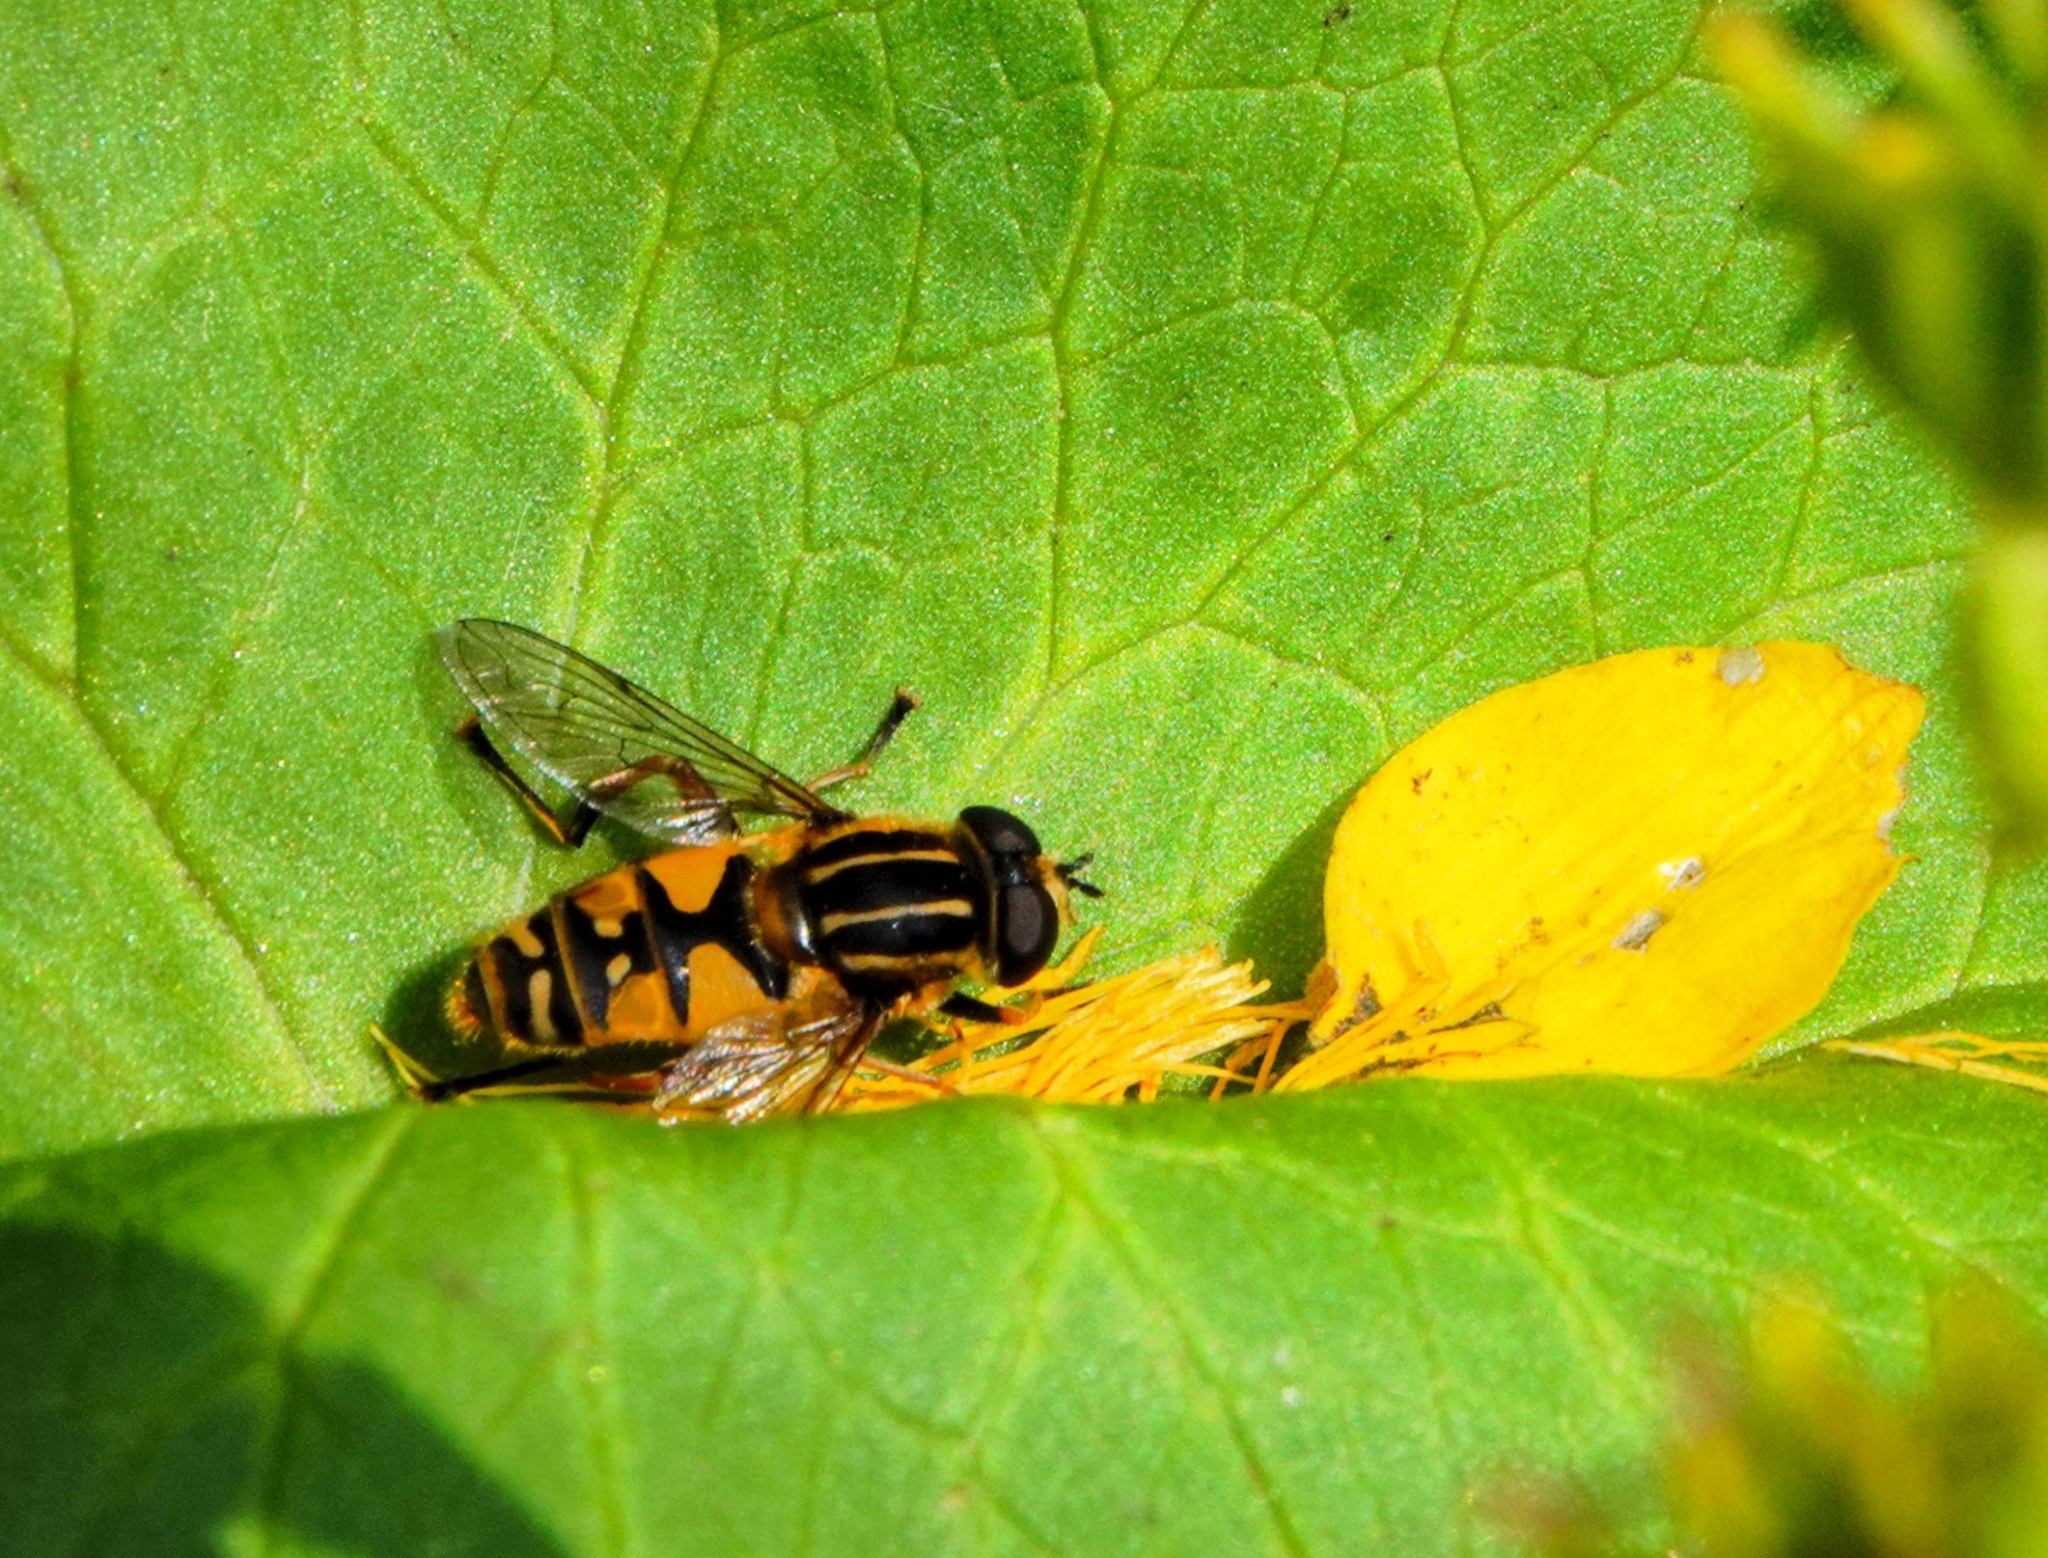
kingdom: Animalia
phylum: Arthropoda
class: Insecta
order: Diptera
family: Syrphidae
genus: Helophilus
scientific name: Helophilus pendulus
